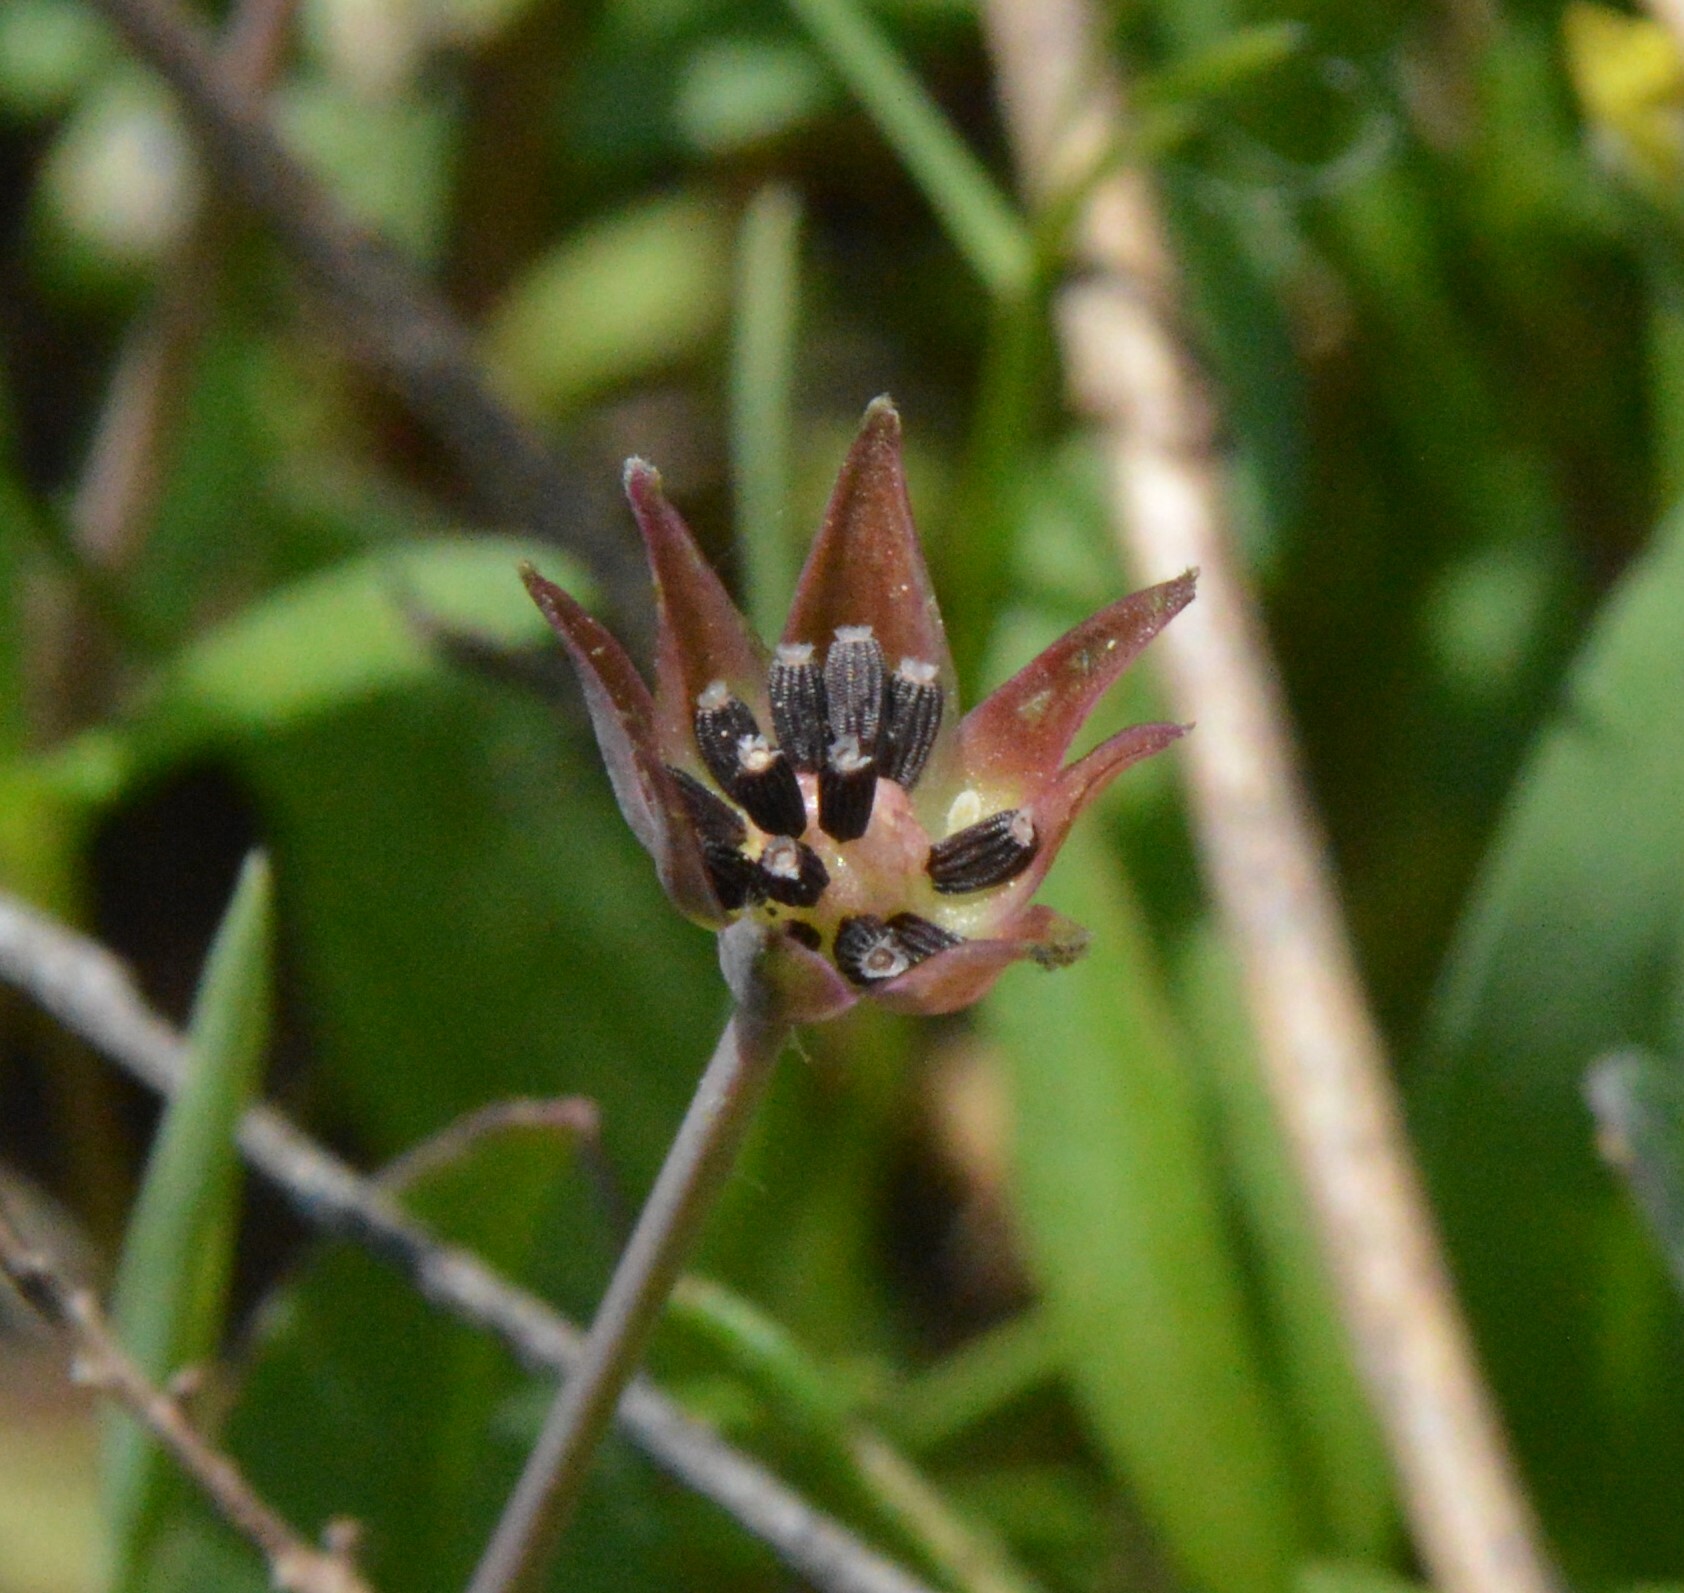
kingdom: Plantae
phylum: Tracheophyta
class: Magnoliopsida
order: Asterales
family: Asteraceae
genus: Krigia
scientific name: Krigia wrightii
